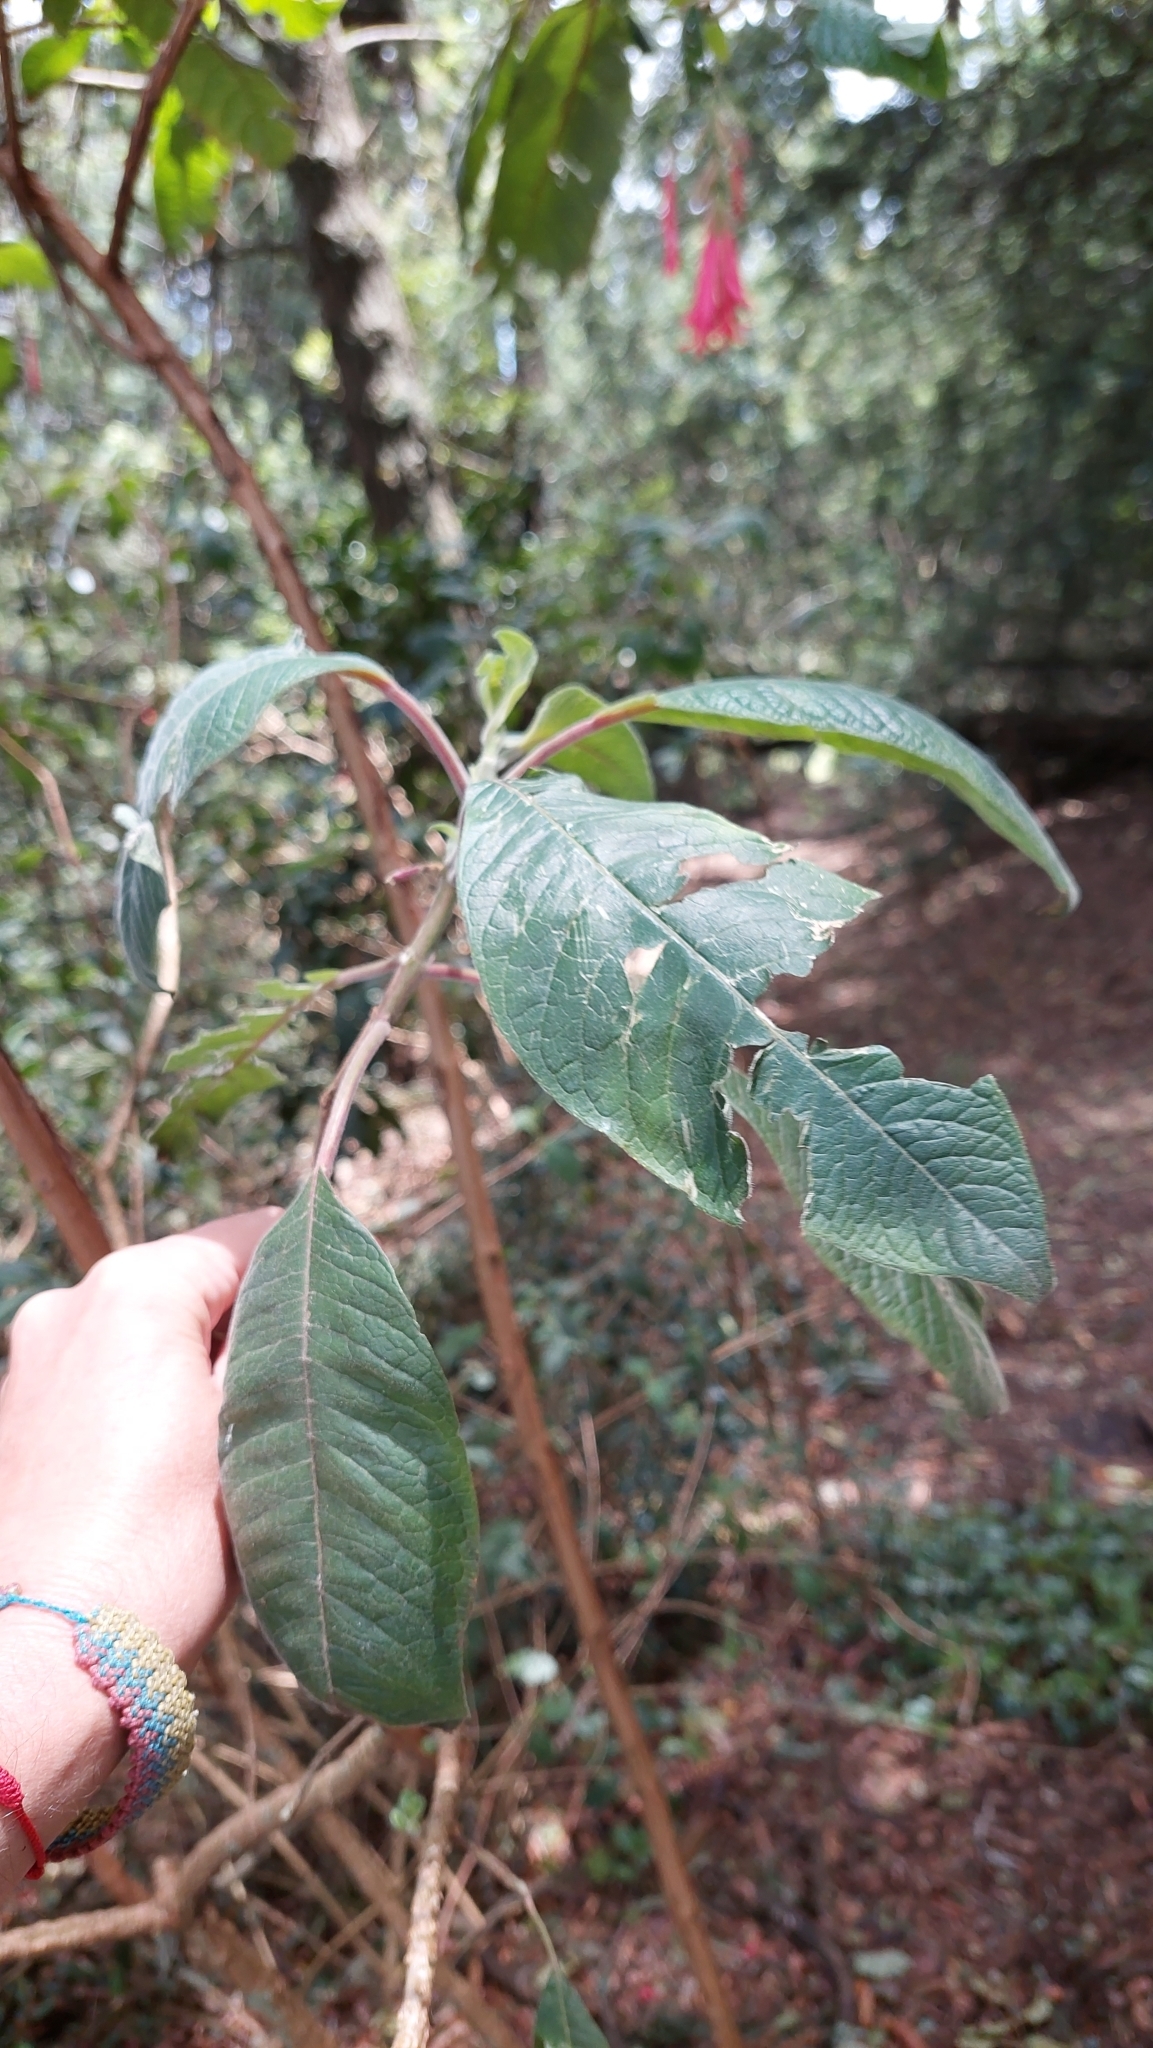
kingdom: Plantae
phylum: Tracheophyta
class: Magnoliopsida
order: Myrtales
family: Onagraceae
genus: Fuchsia
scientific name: Fuchsia boliviana
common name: Bolivian fuchsia
